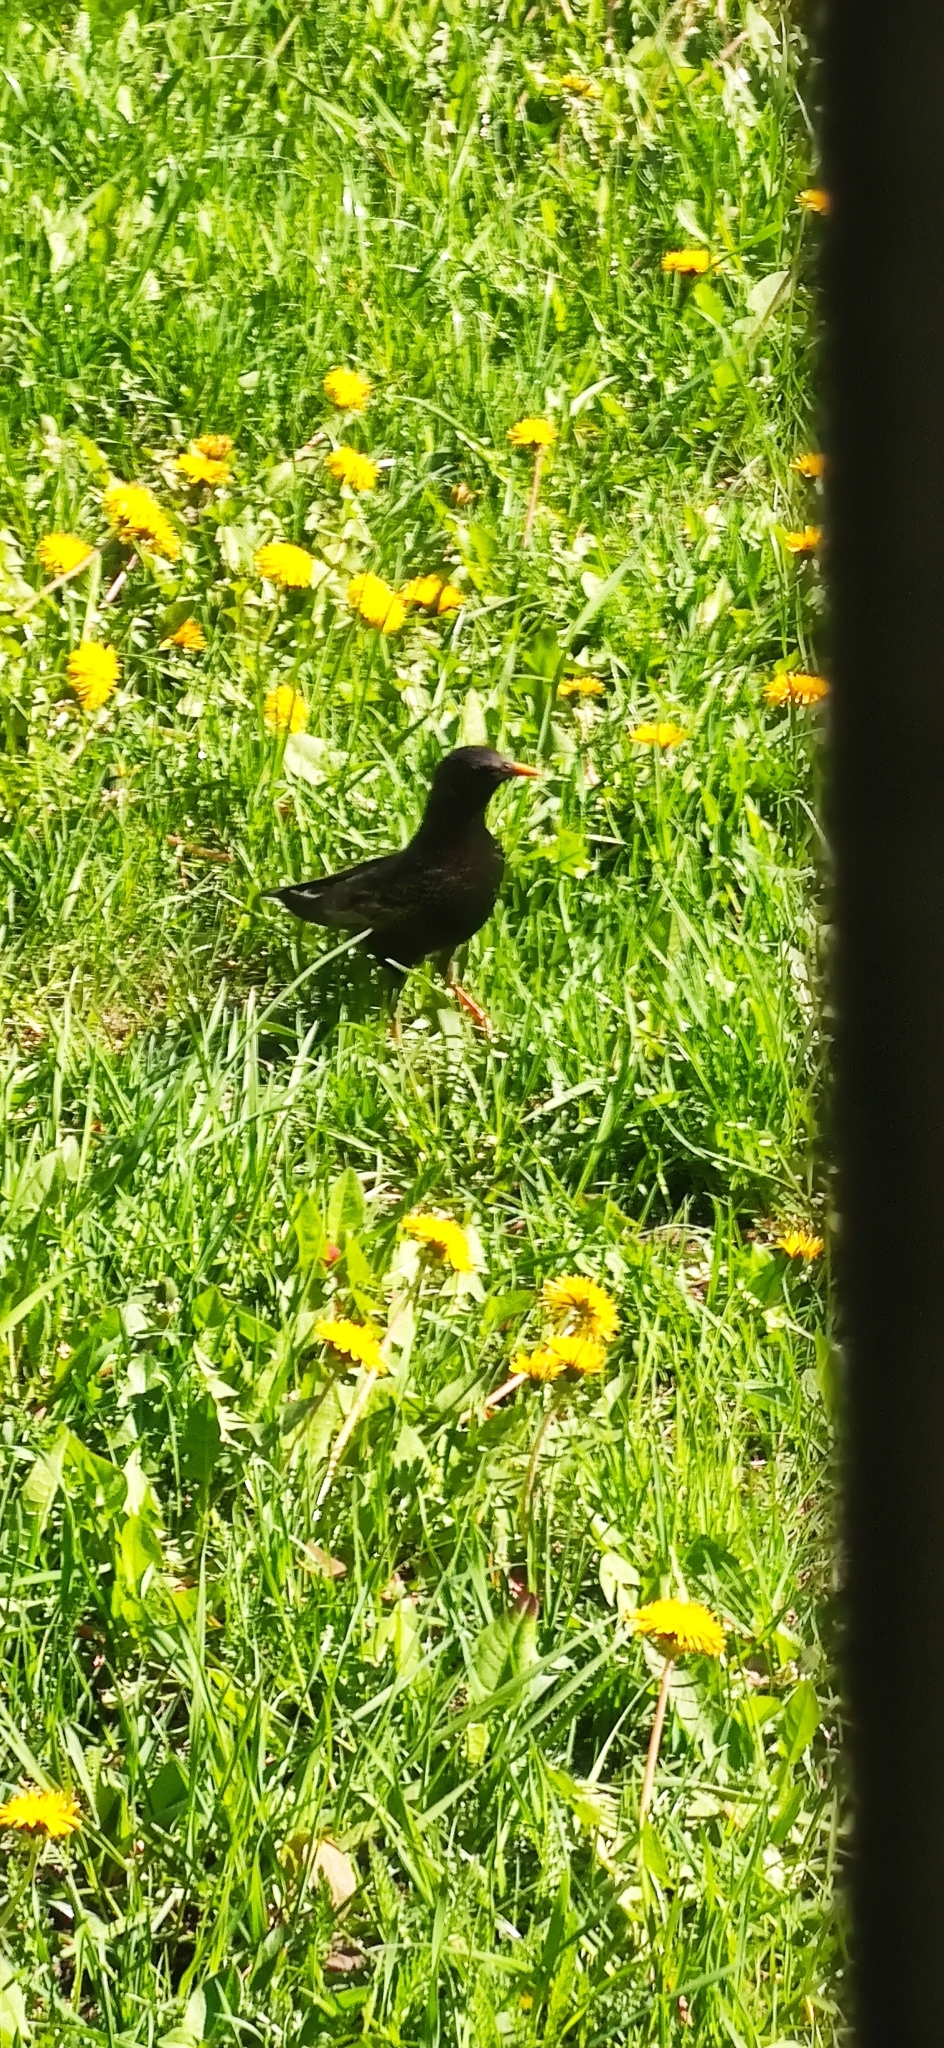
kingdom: Animalia
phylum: Chordata
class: Aves
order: Passeriformes
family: Sturnidae
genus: Sturnus
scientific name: Sturnus vulgaris
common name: Common starling
